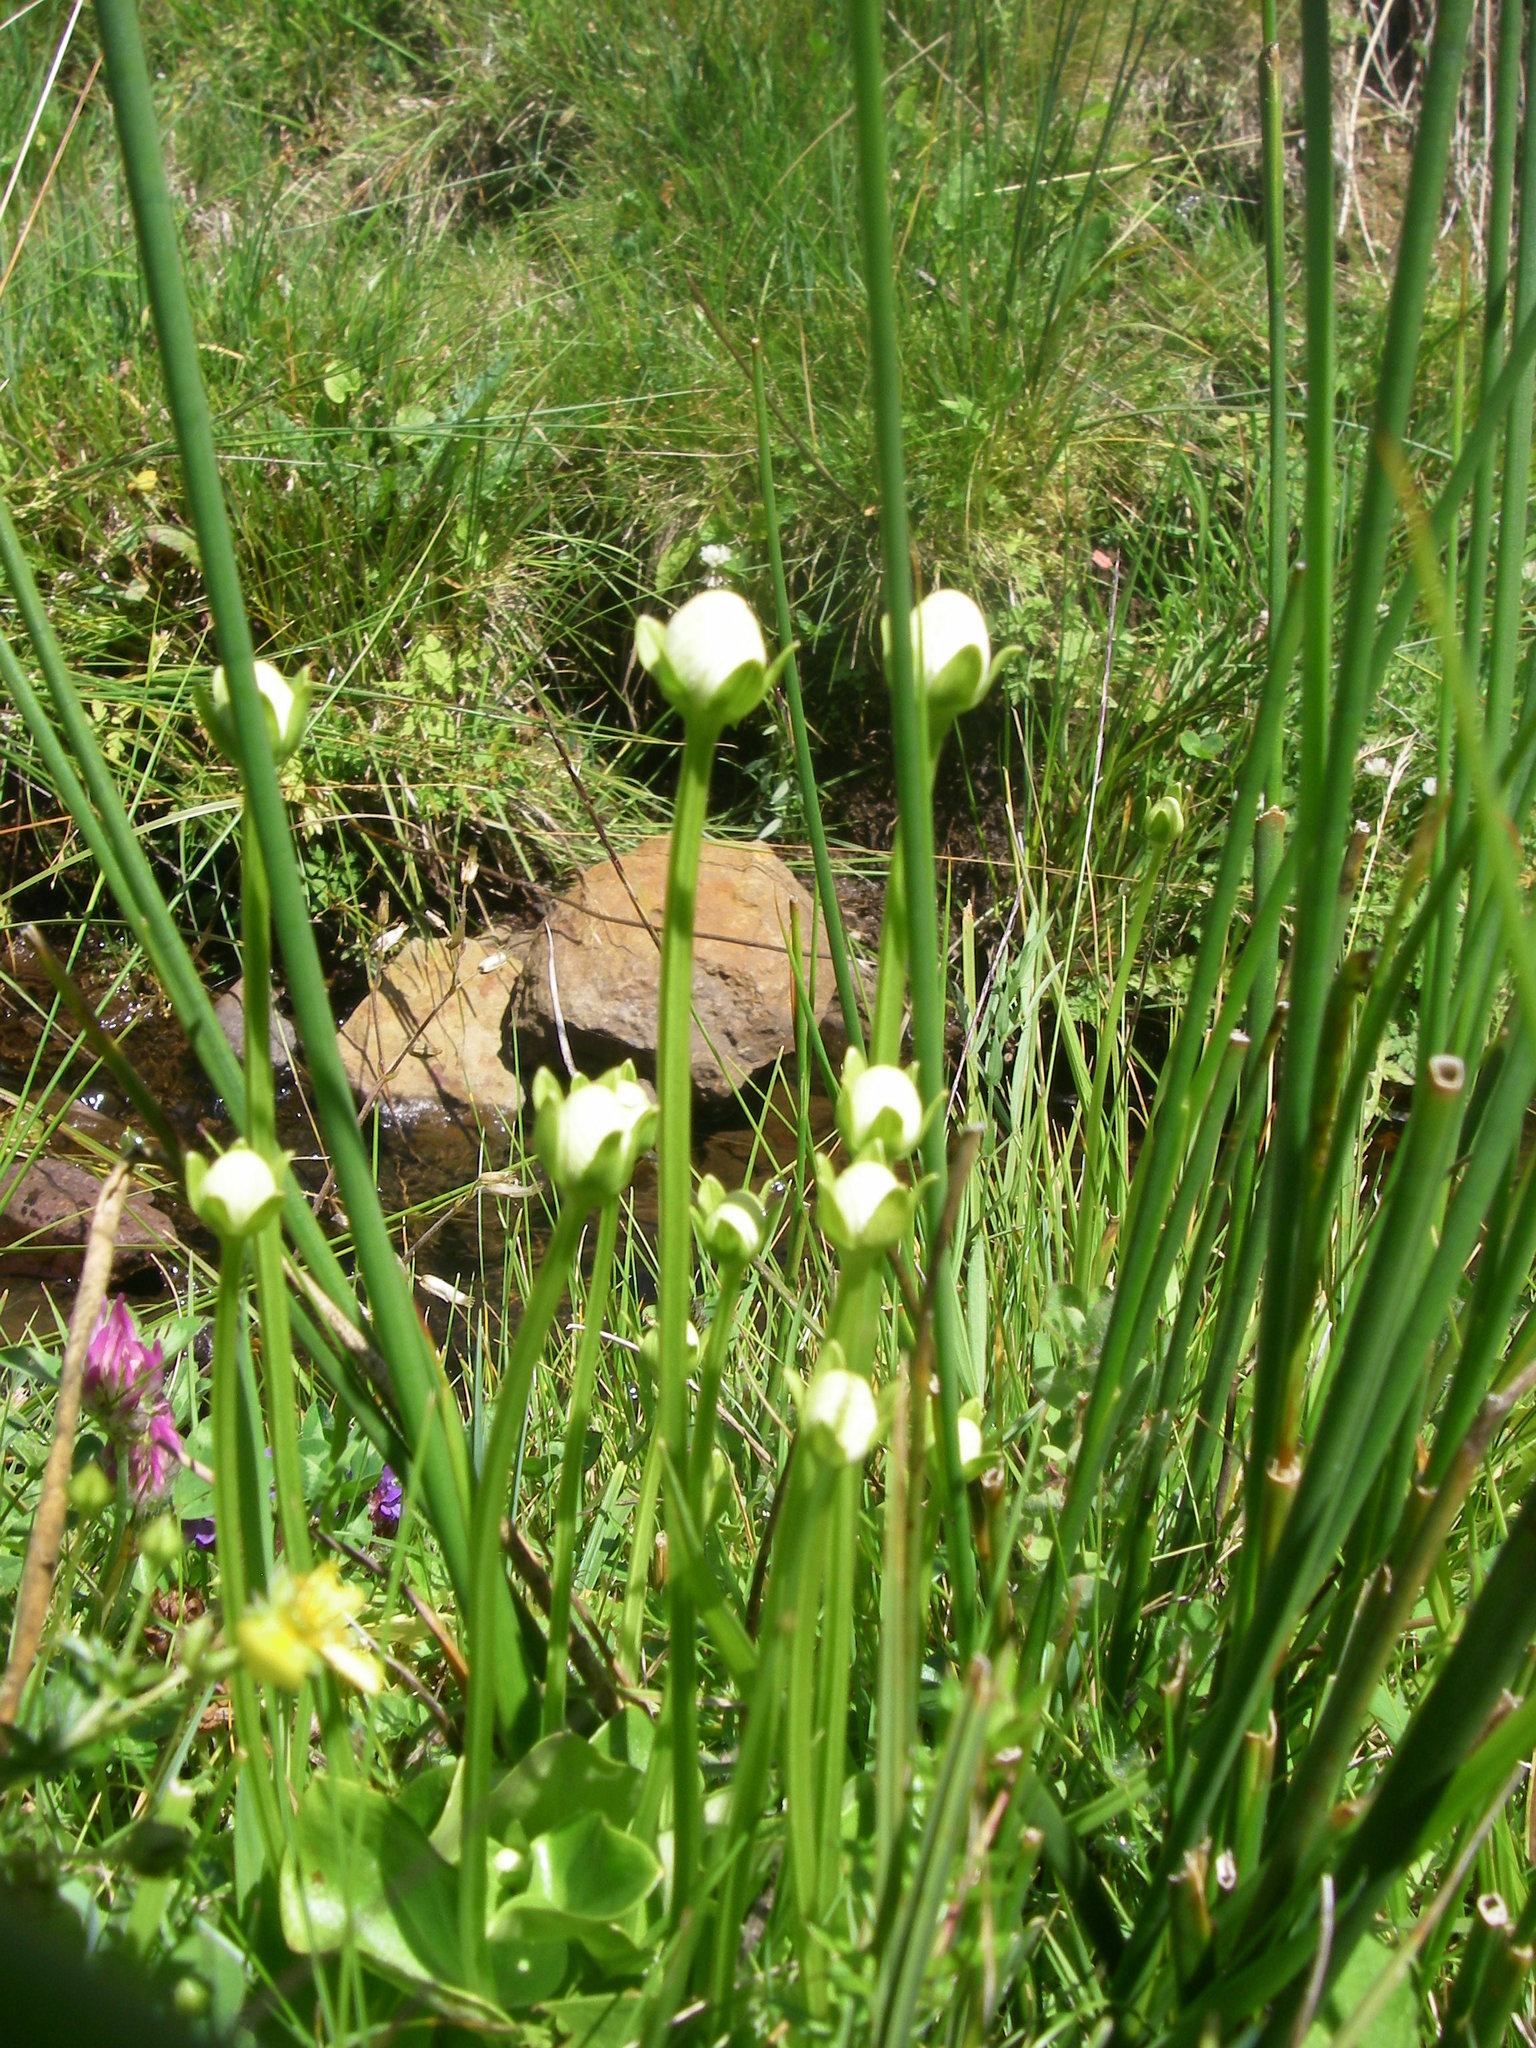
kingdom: Plantae
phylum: Tracheophyta
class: Magnoliopsida
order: Celastrales
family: Parnassiaceae
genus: Parnassia
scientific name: Parnassia palustris
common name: Grass-of-parnassus
